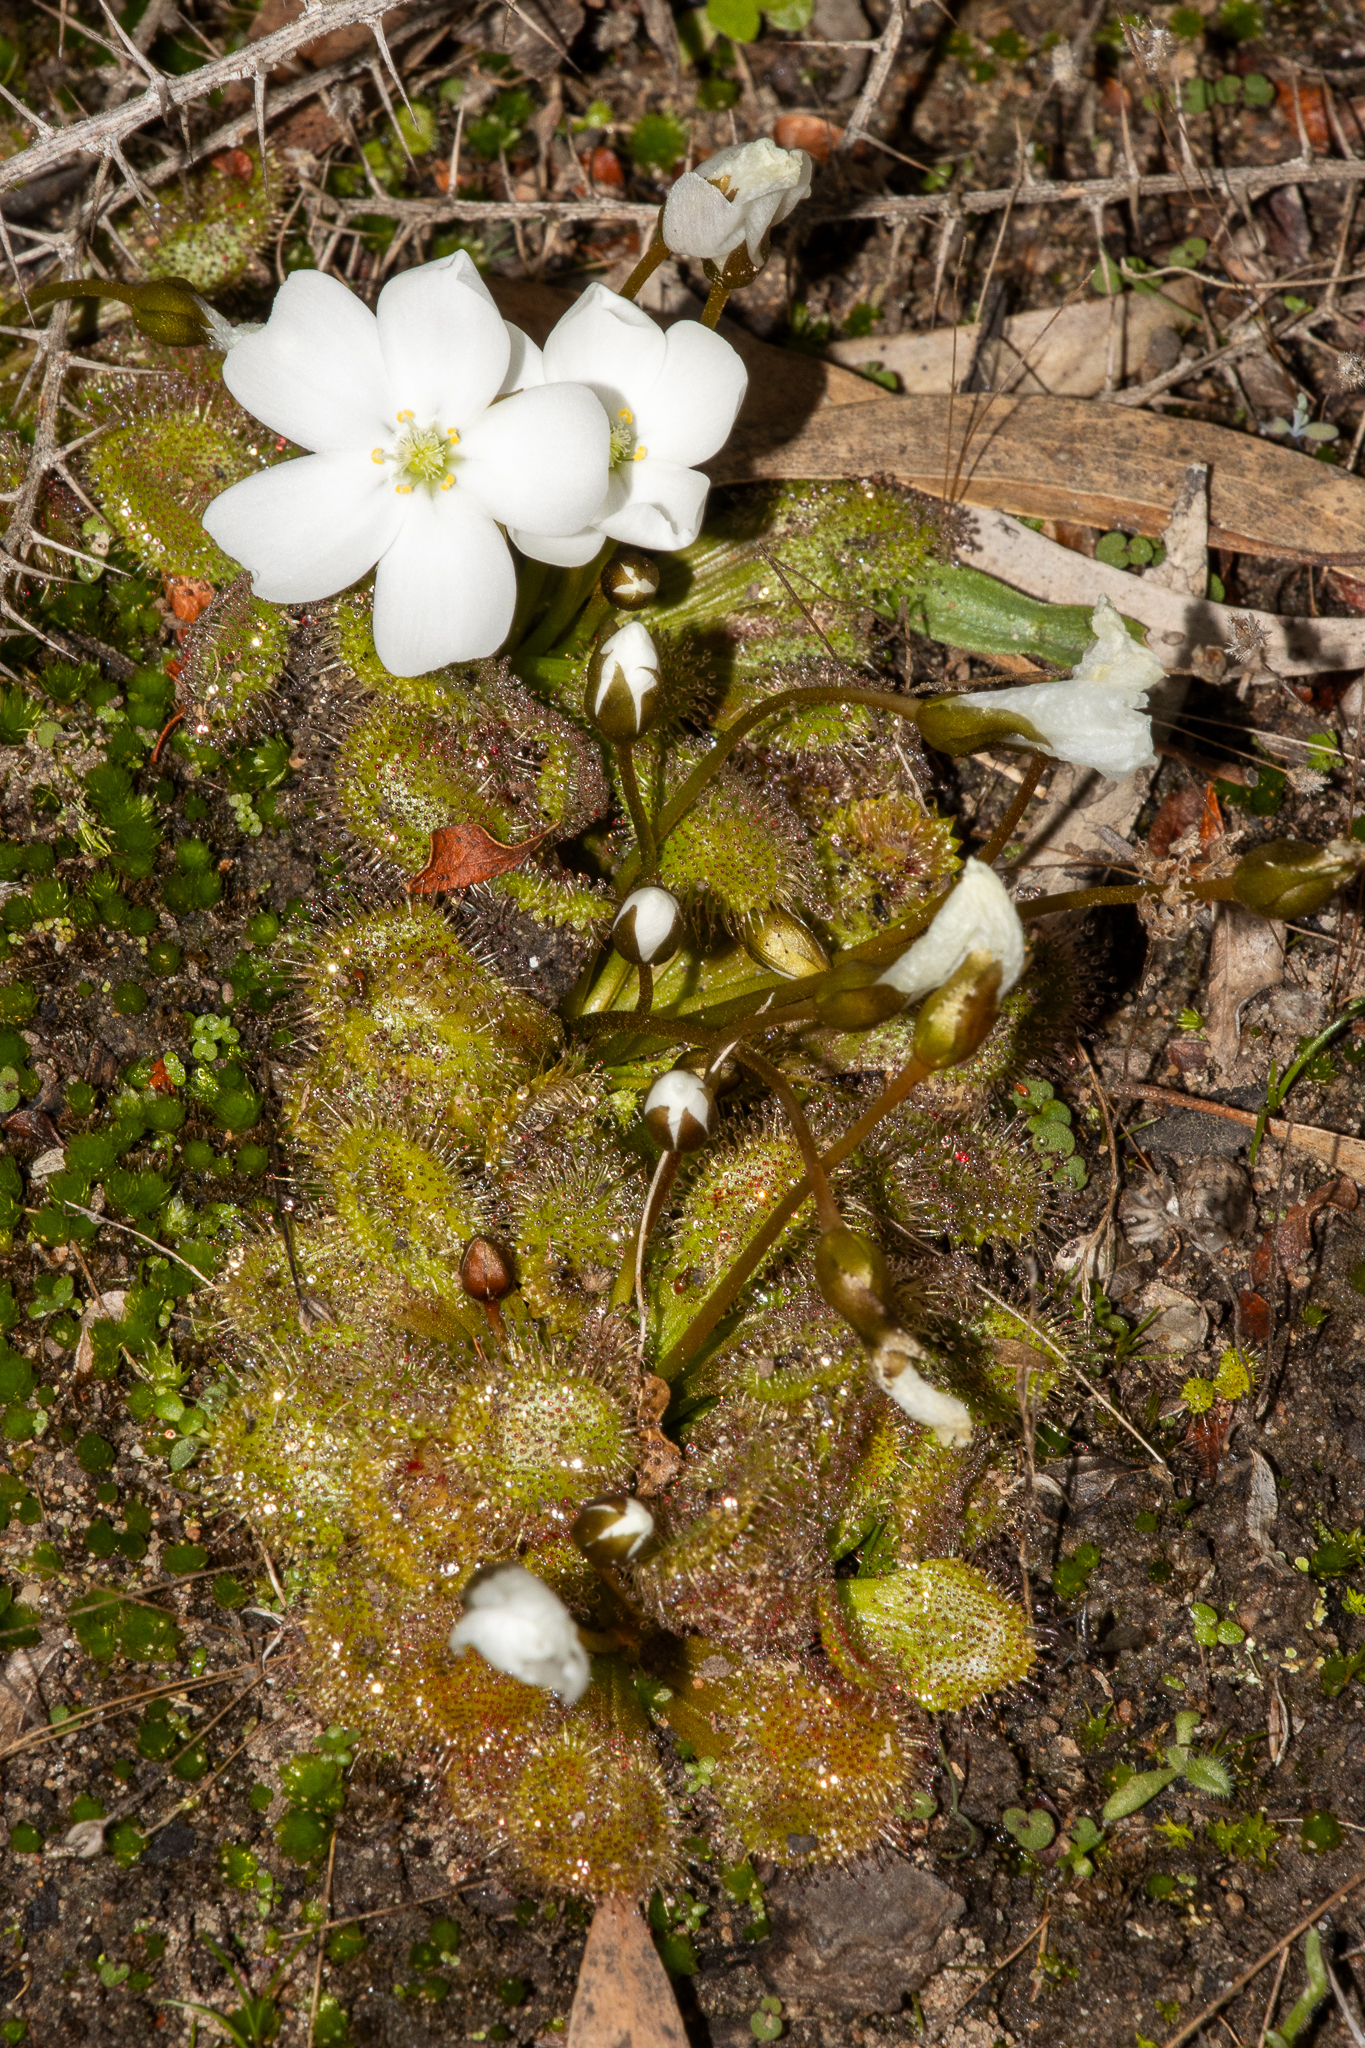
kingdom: Plantae
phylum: Tracheophyta
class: Magnoliopsida
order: Caryophyllales
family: Droseraceae
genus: Drosera
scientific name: Drosera whittakeri
